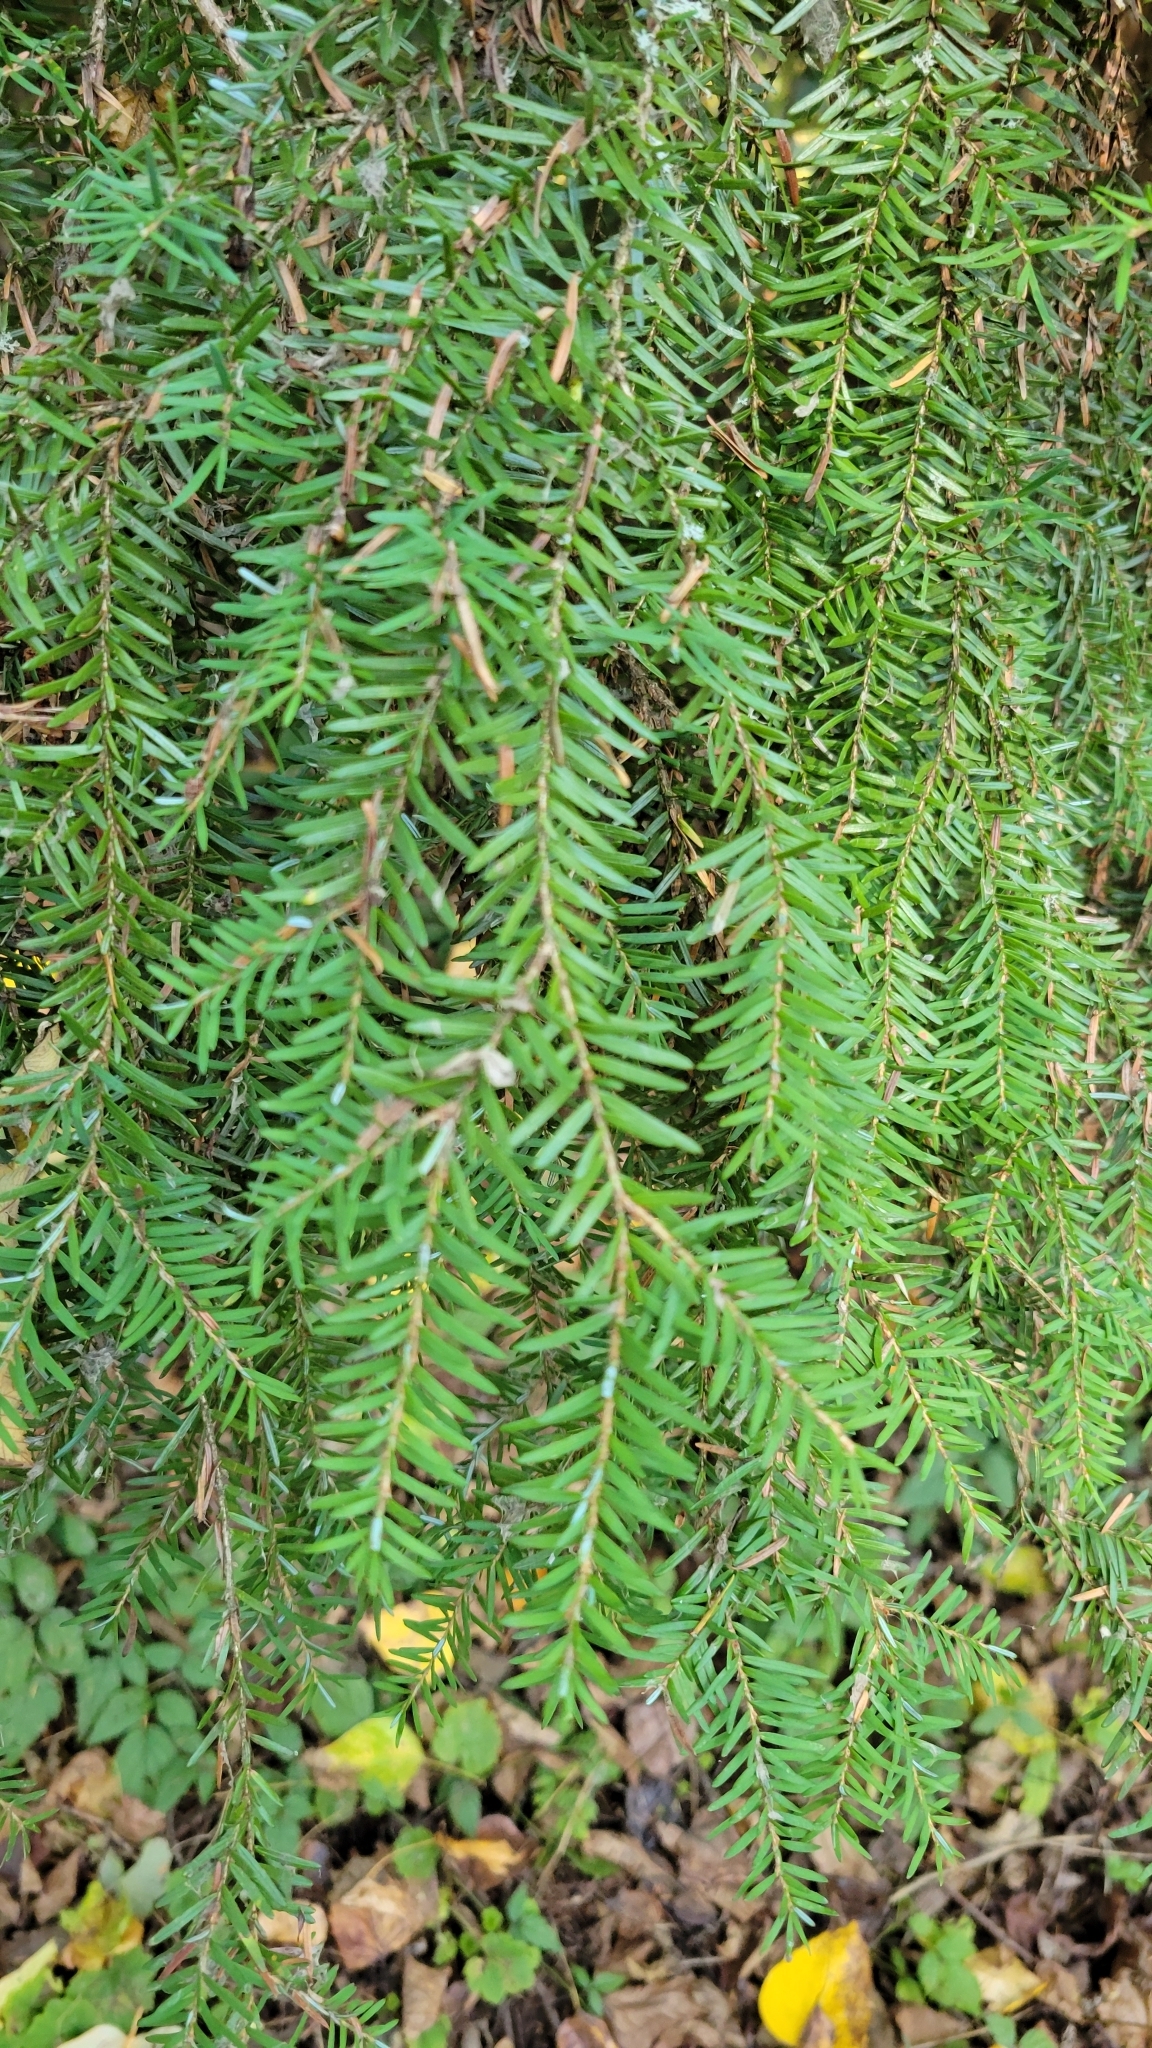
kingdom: Plantae
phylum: Tracheophyta
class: Pinopsida
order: Pinales
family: Pinaceae
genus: Tsuga
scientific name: Tsuga heterophylla
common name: Western hemlock
